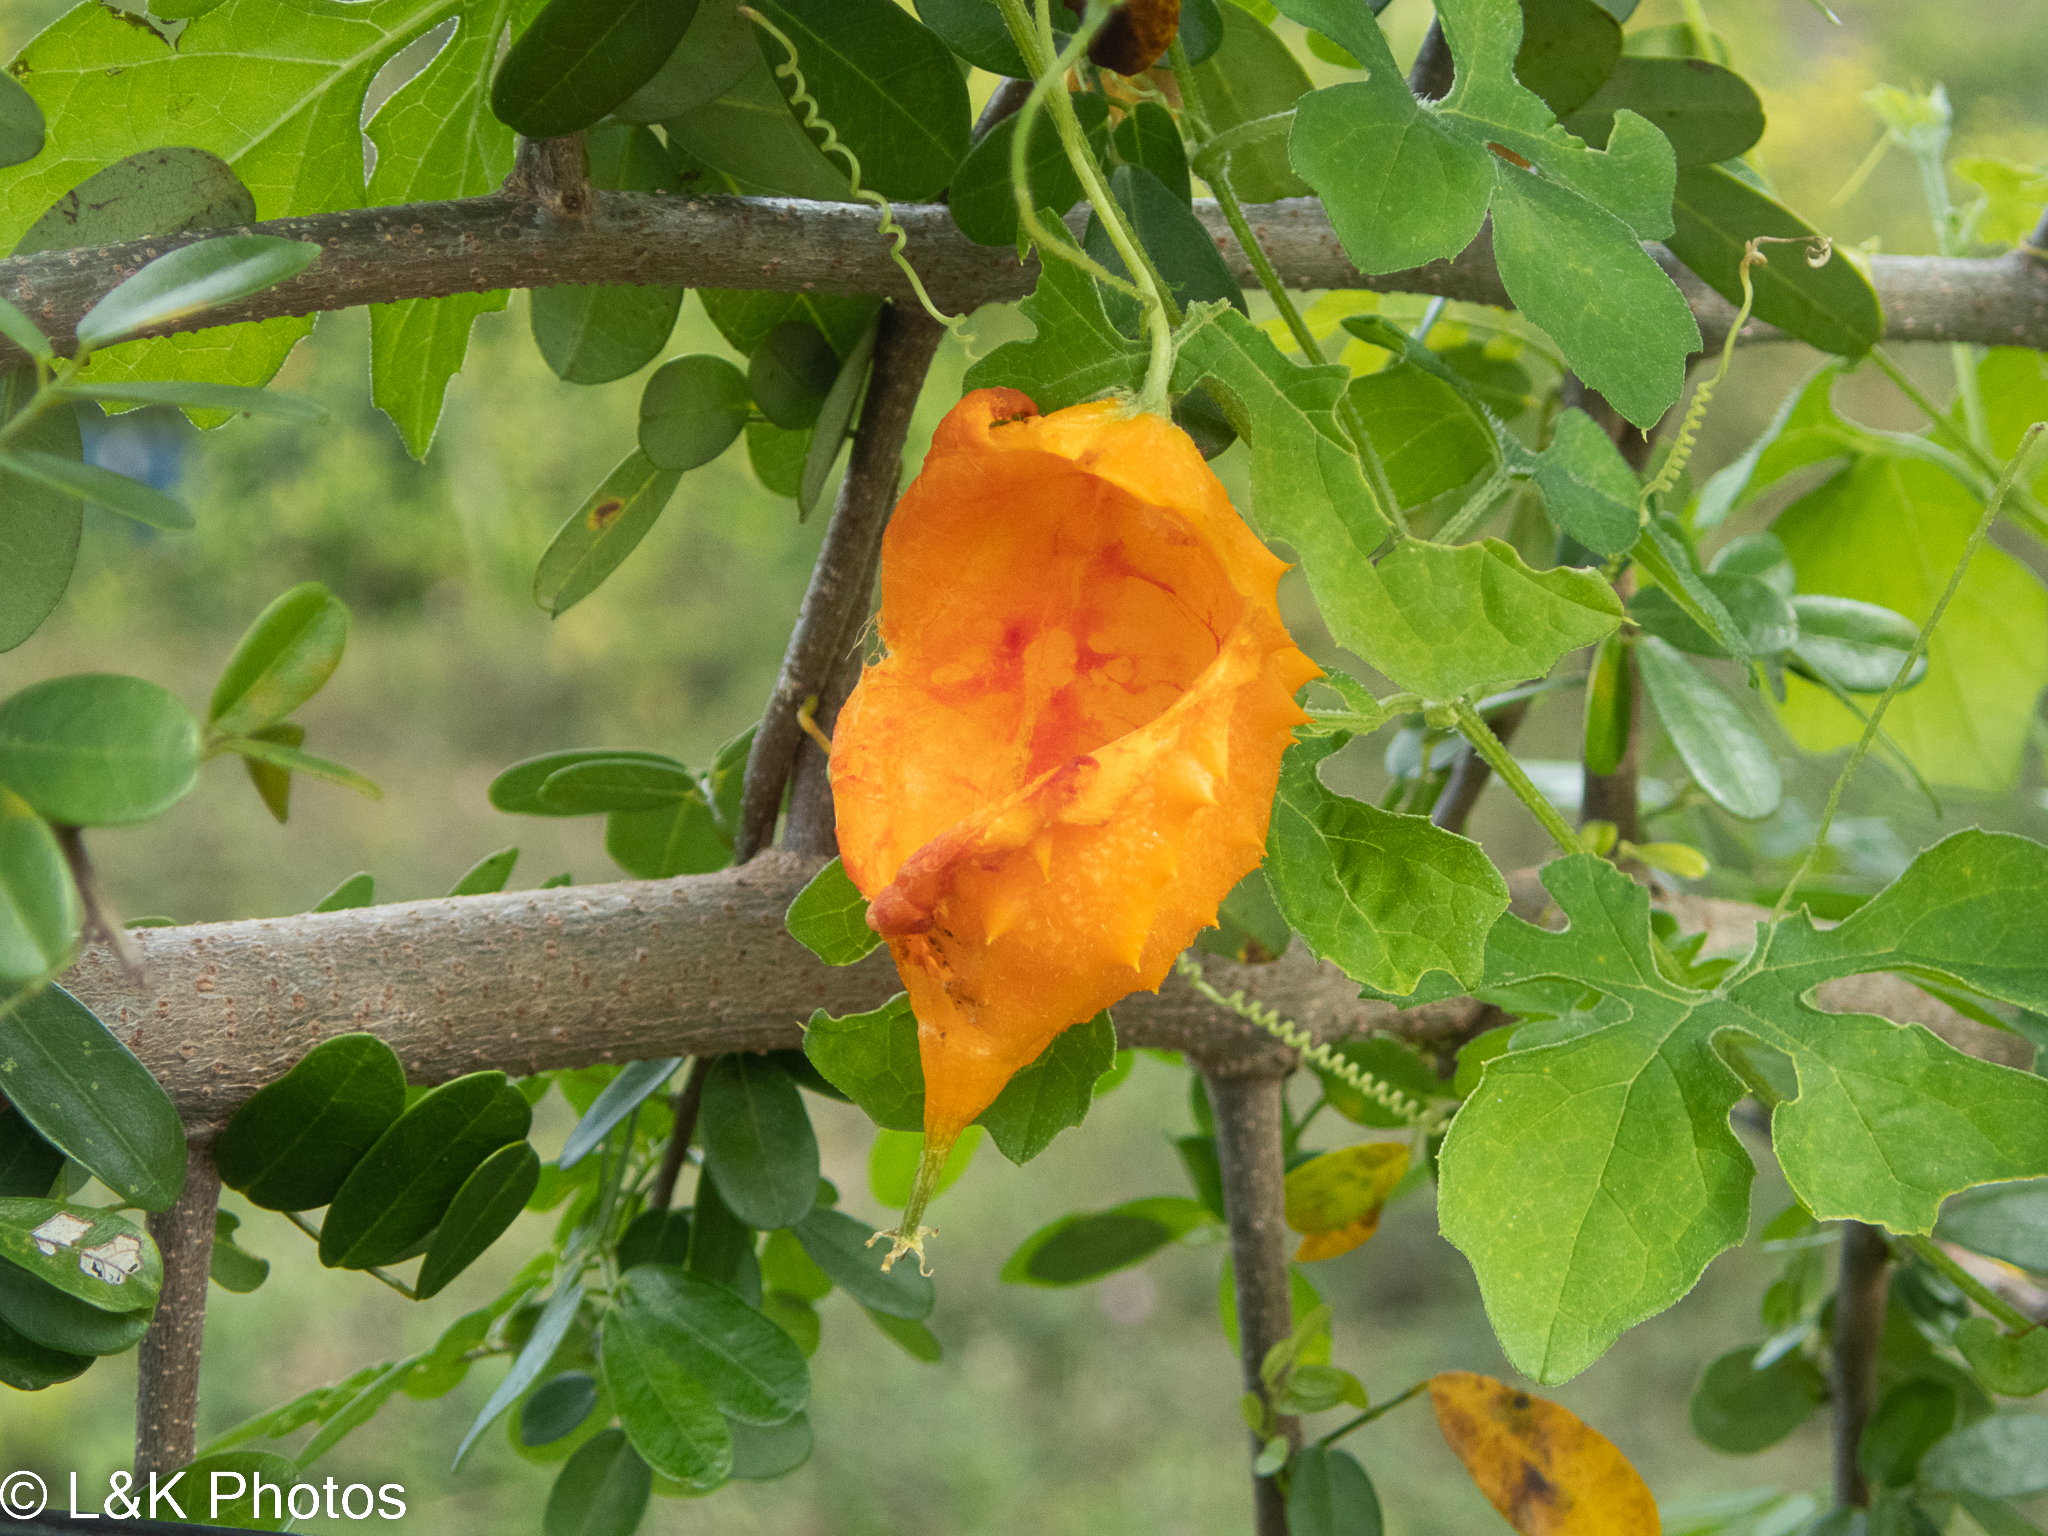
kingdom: Plantae
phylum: Tracheophyta
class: Magnoliopsida
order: Cucurbitales
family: Cucurbitaceae
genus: Momordica
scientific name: Momordica charantia
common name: Balsampear
